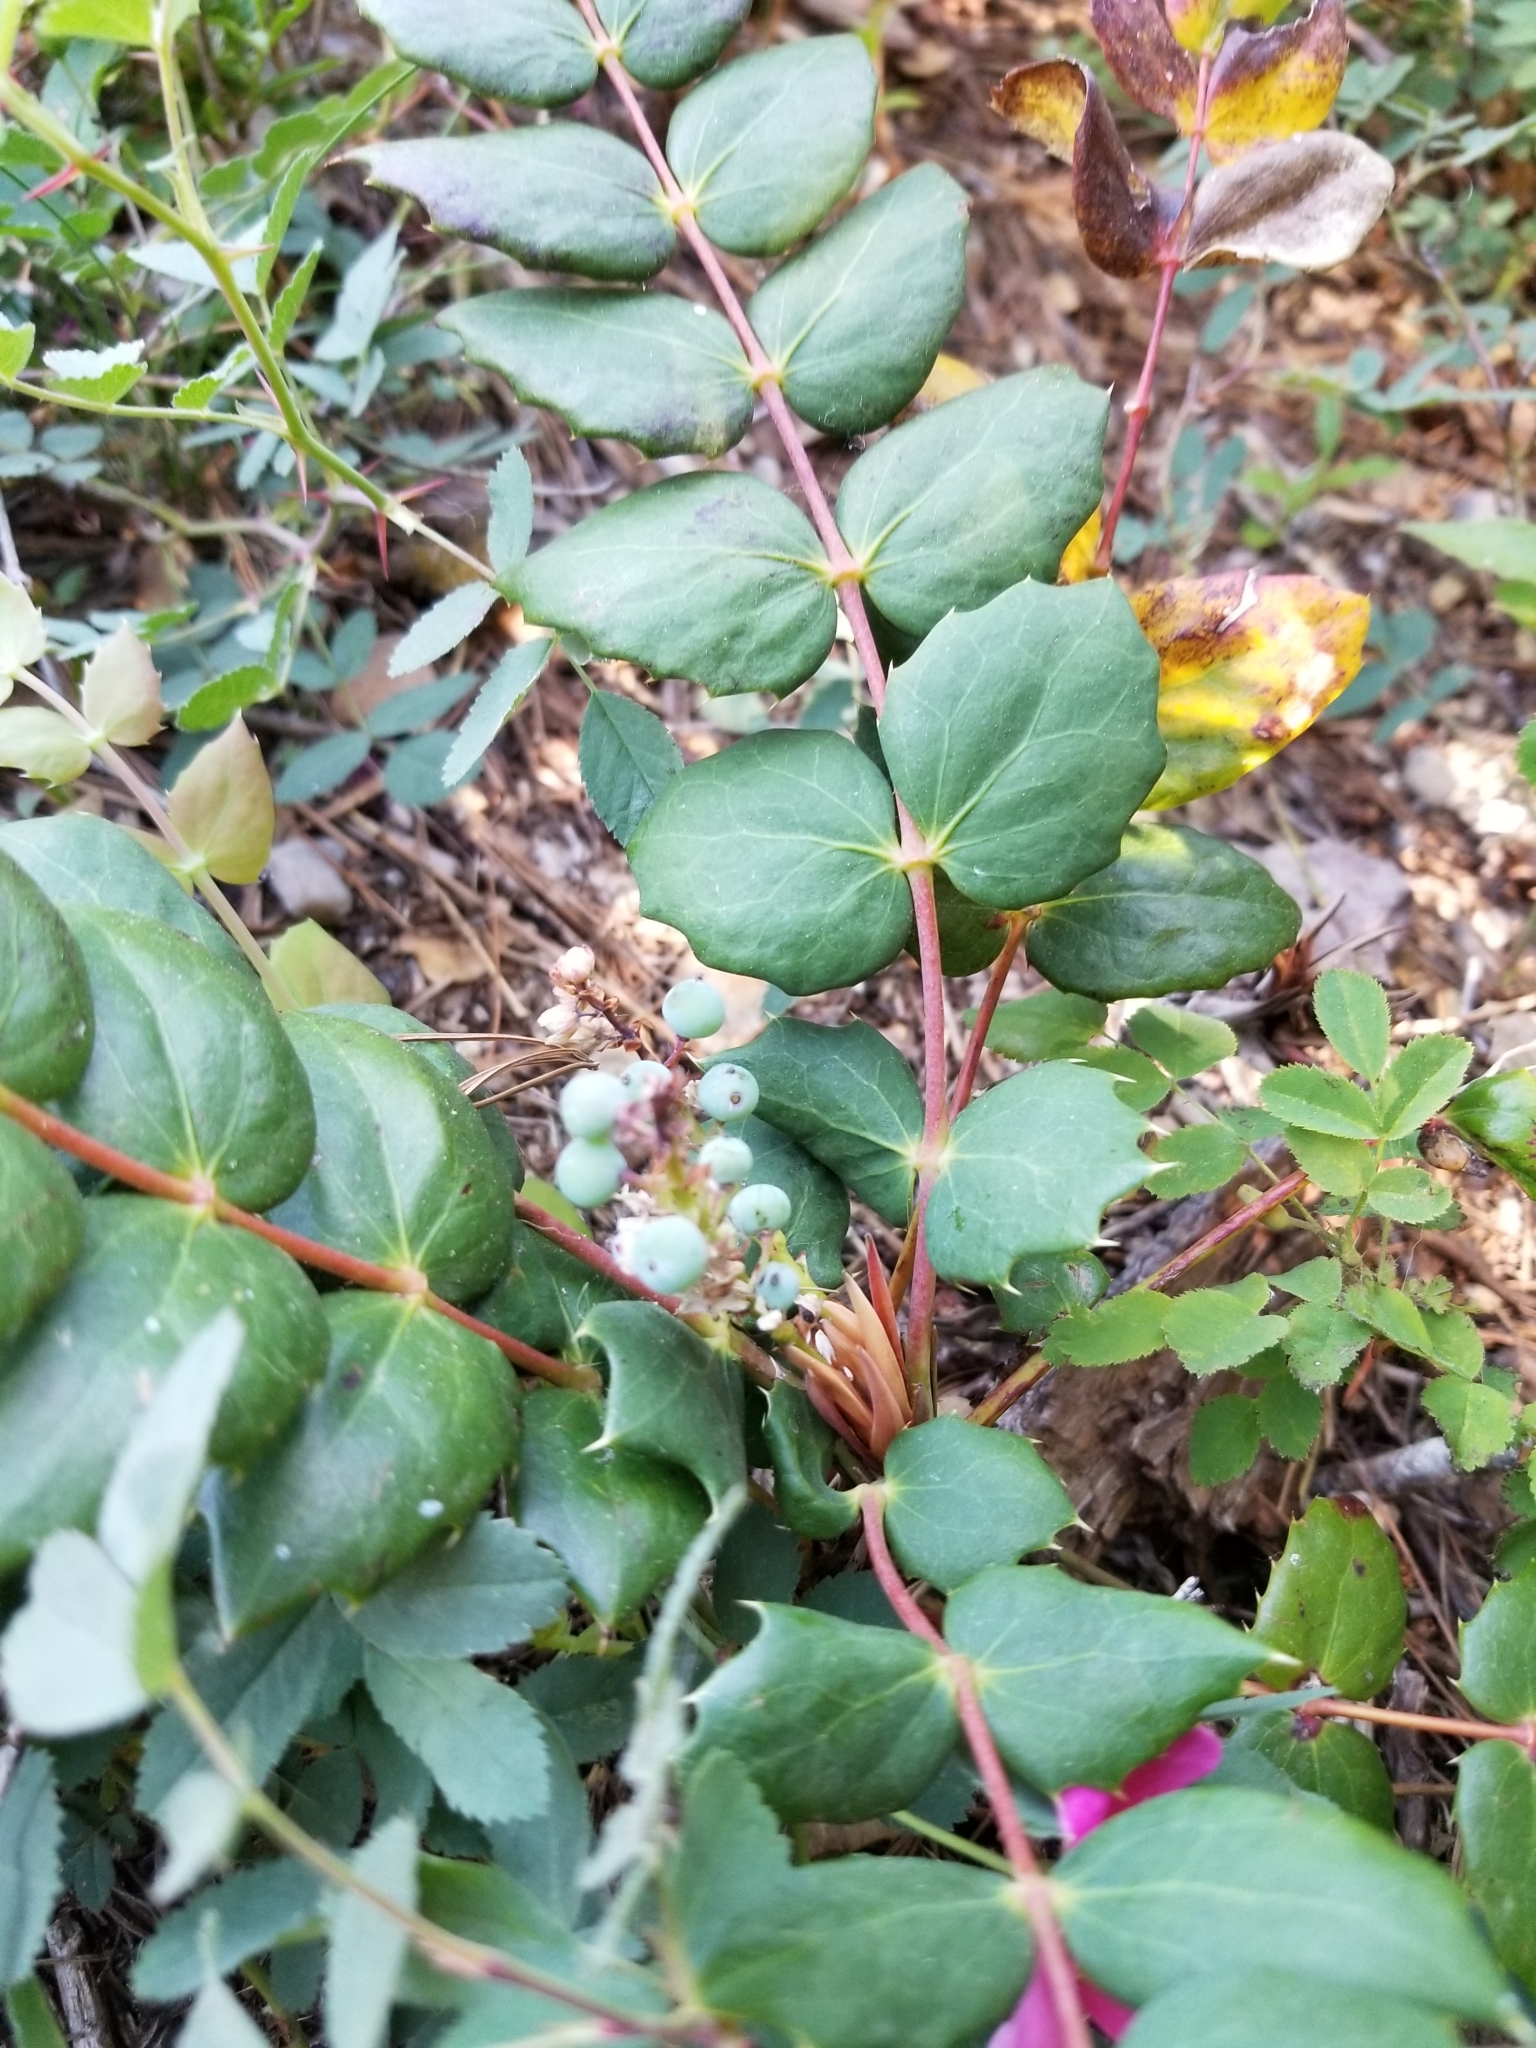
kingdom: Plantae
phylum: Tracheophyta
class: Magnoliopsida
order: Ranunculales
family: Berberidaceae
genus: Mahonia
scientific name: Mahonia nervosa
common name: Cascade oregon-grape
